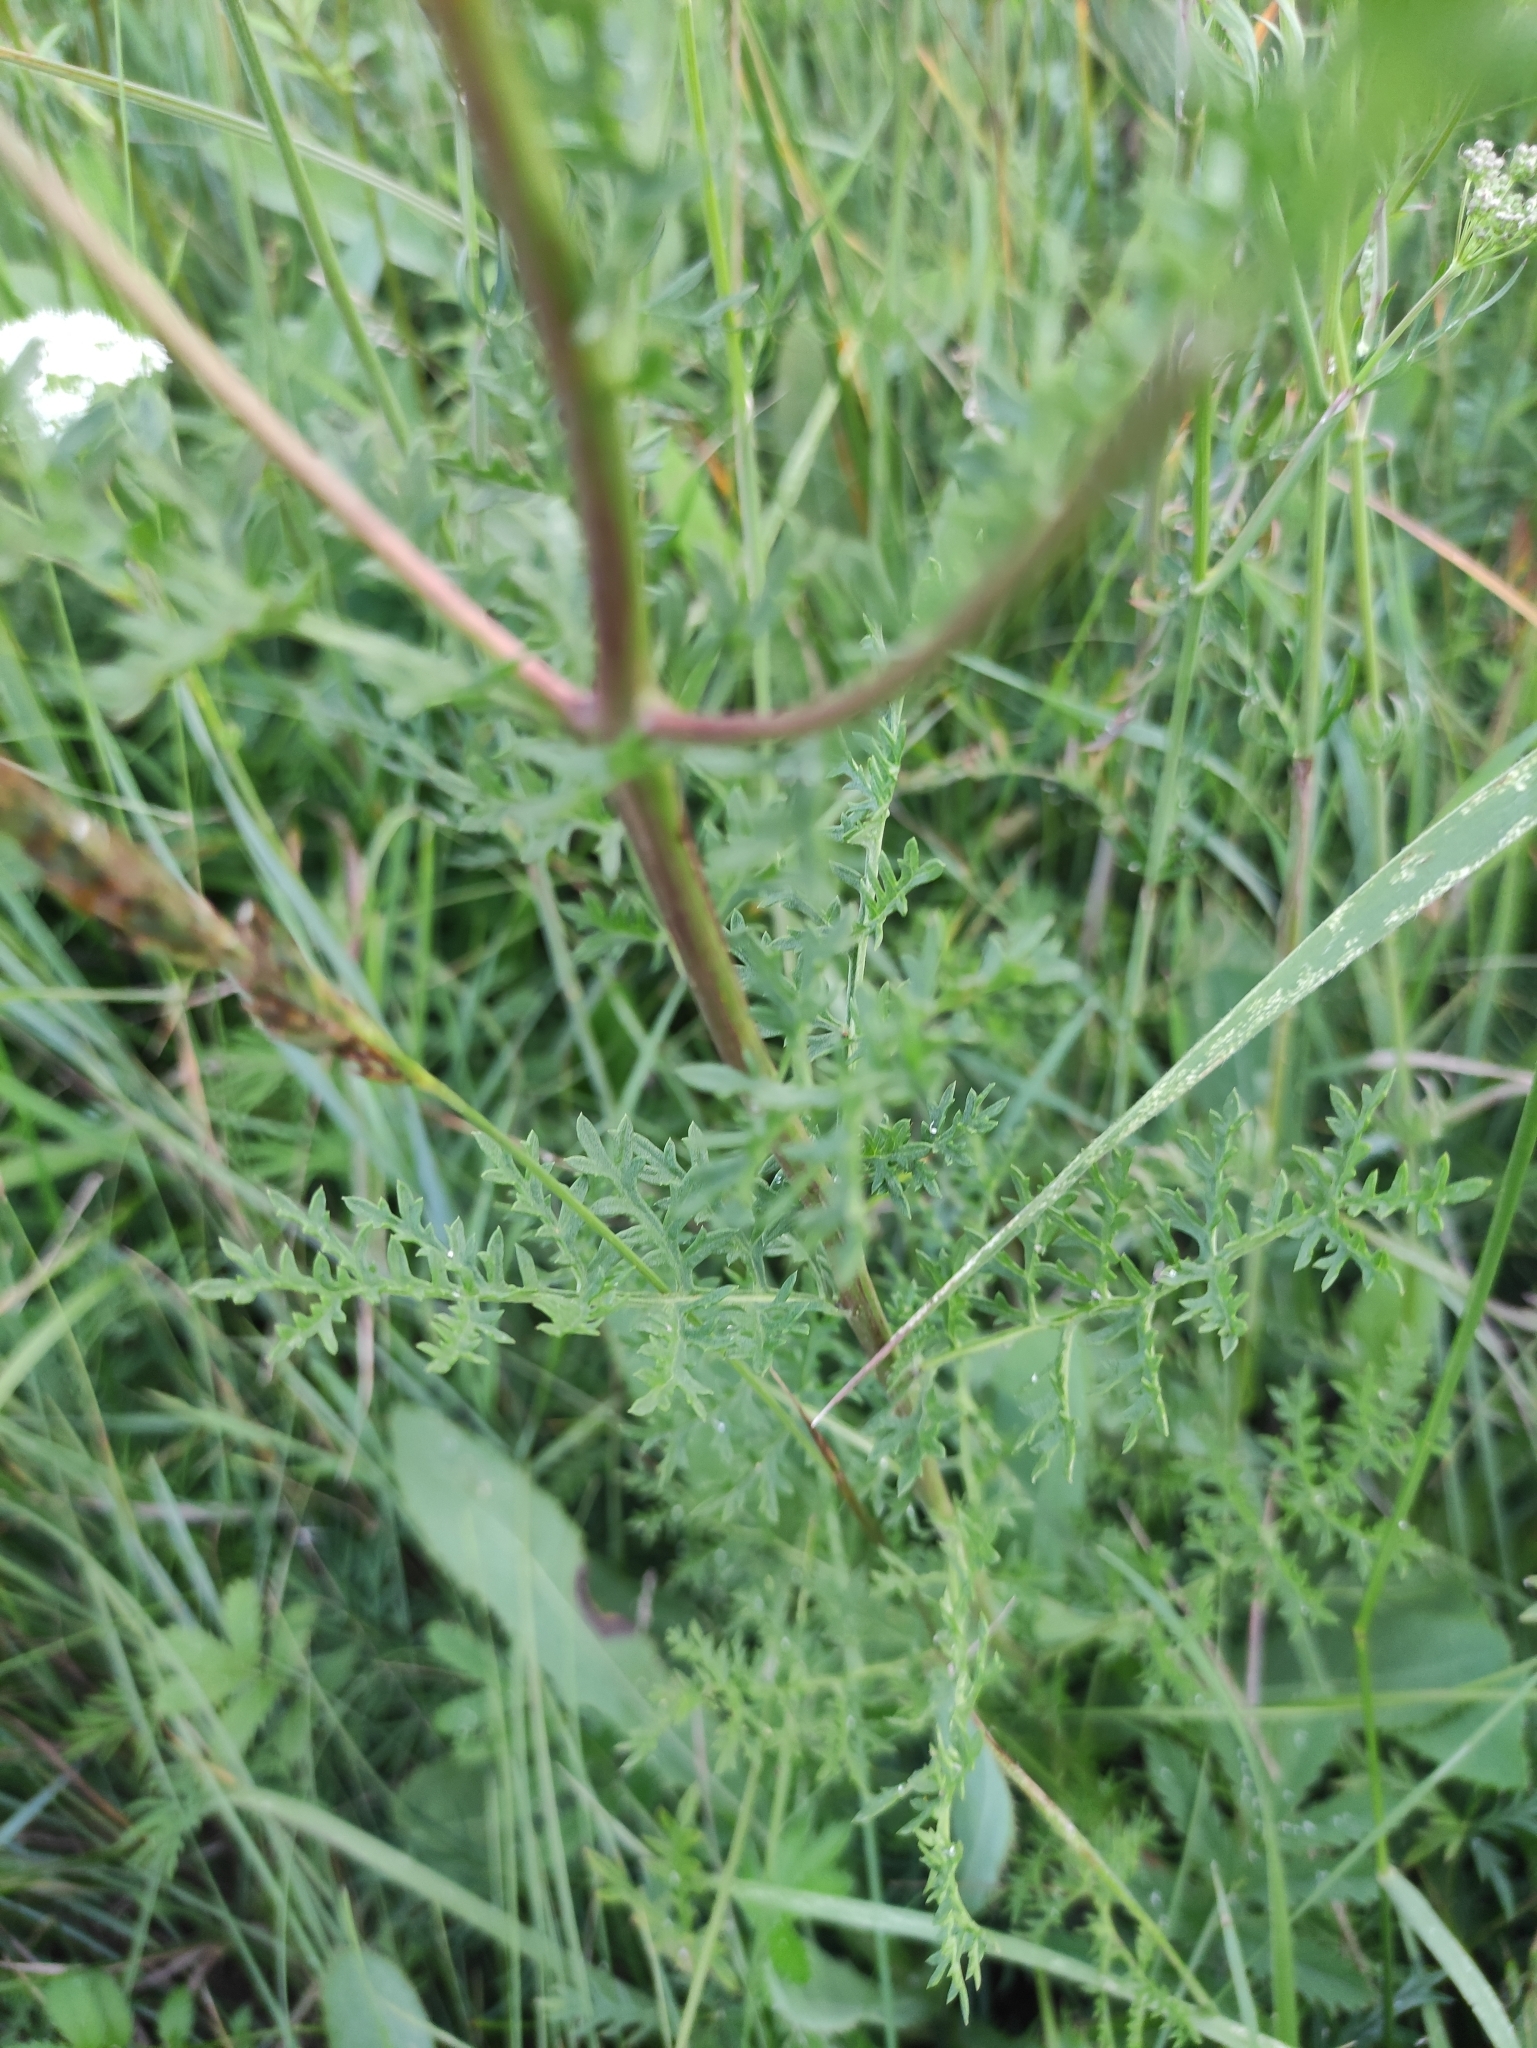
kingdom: Plantae
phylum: Tracheophyta
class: Magnoliopsida
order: Asterales
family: Asteraceae
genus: Artemisia
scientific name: Artemisia tanacetifolia
